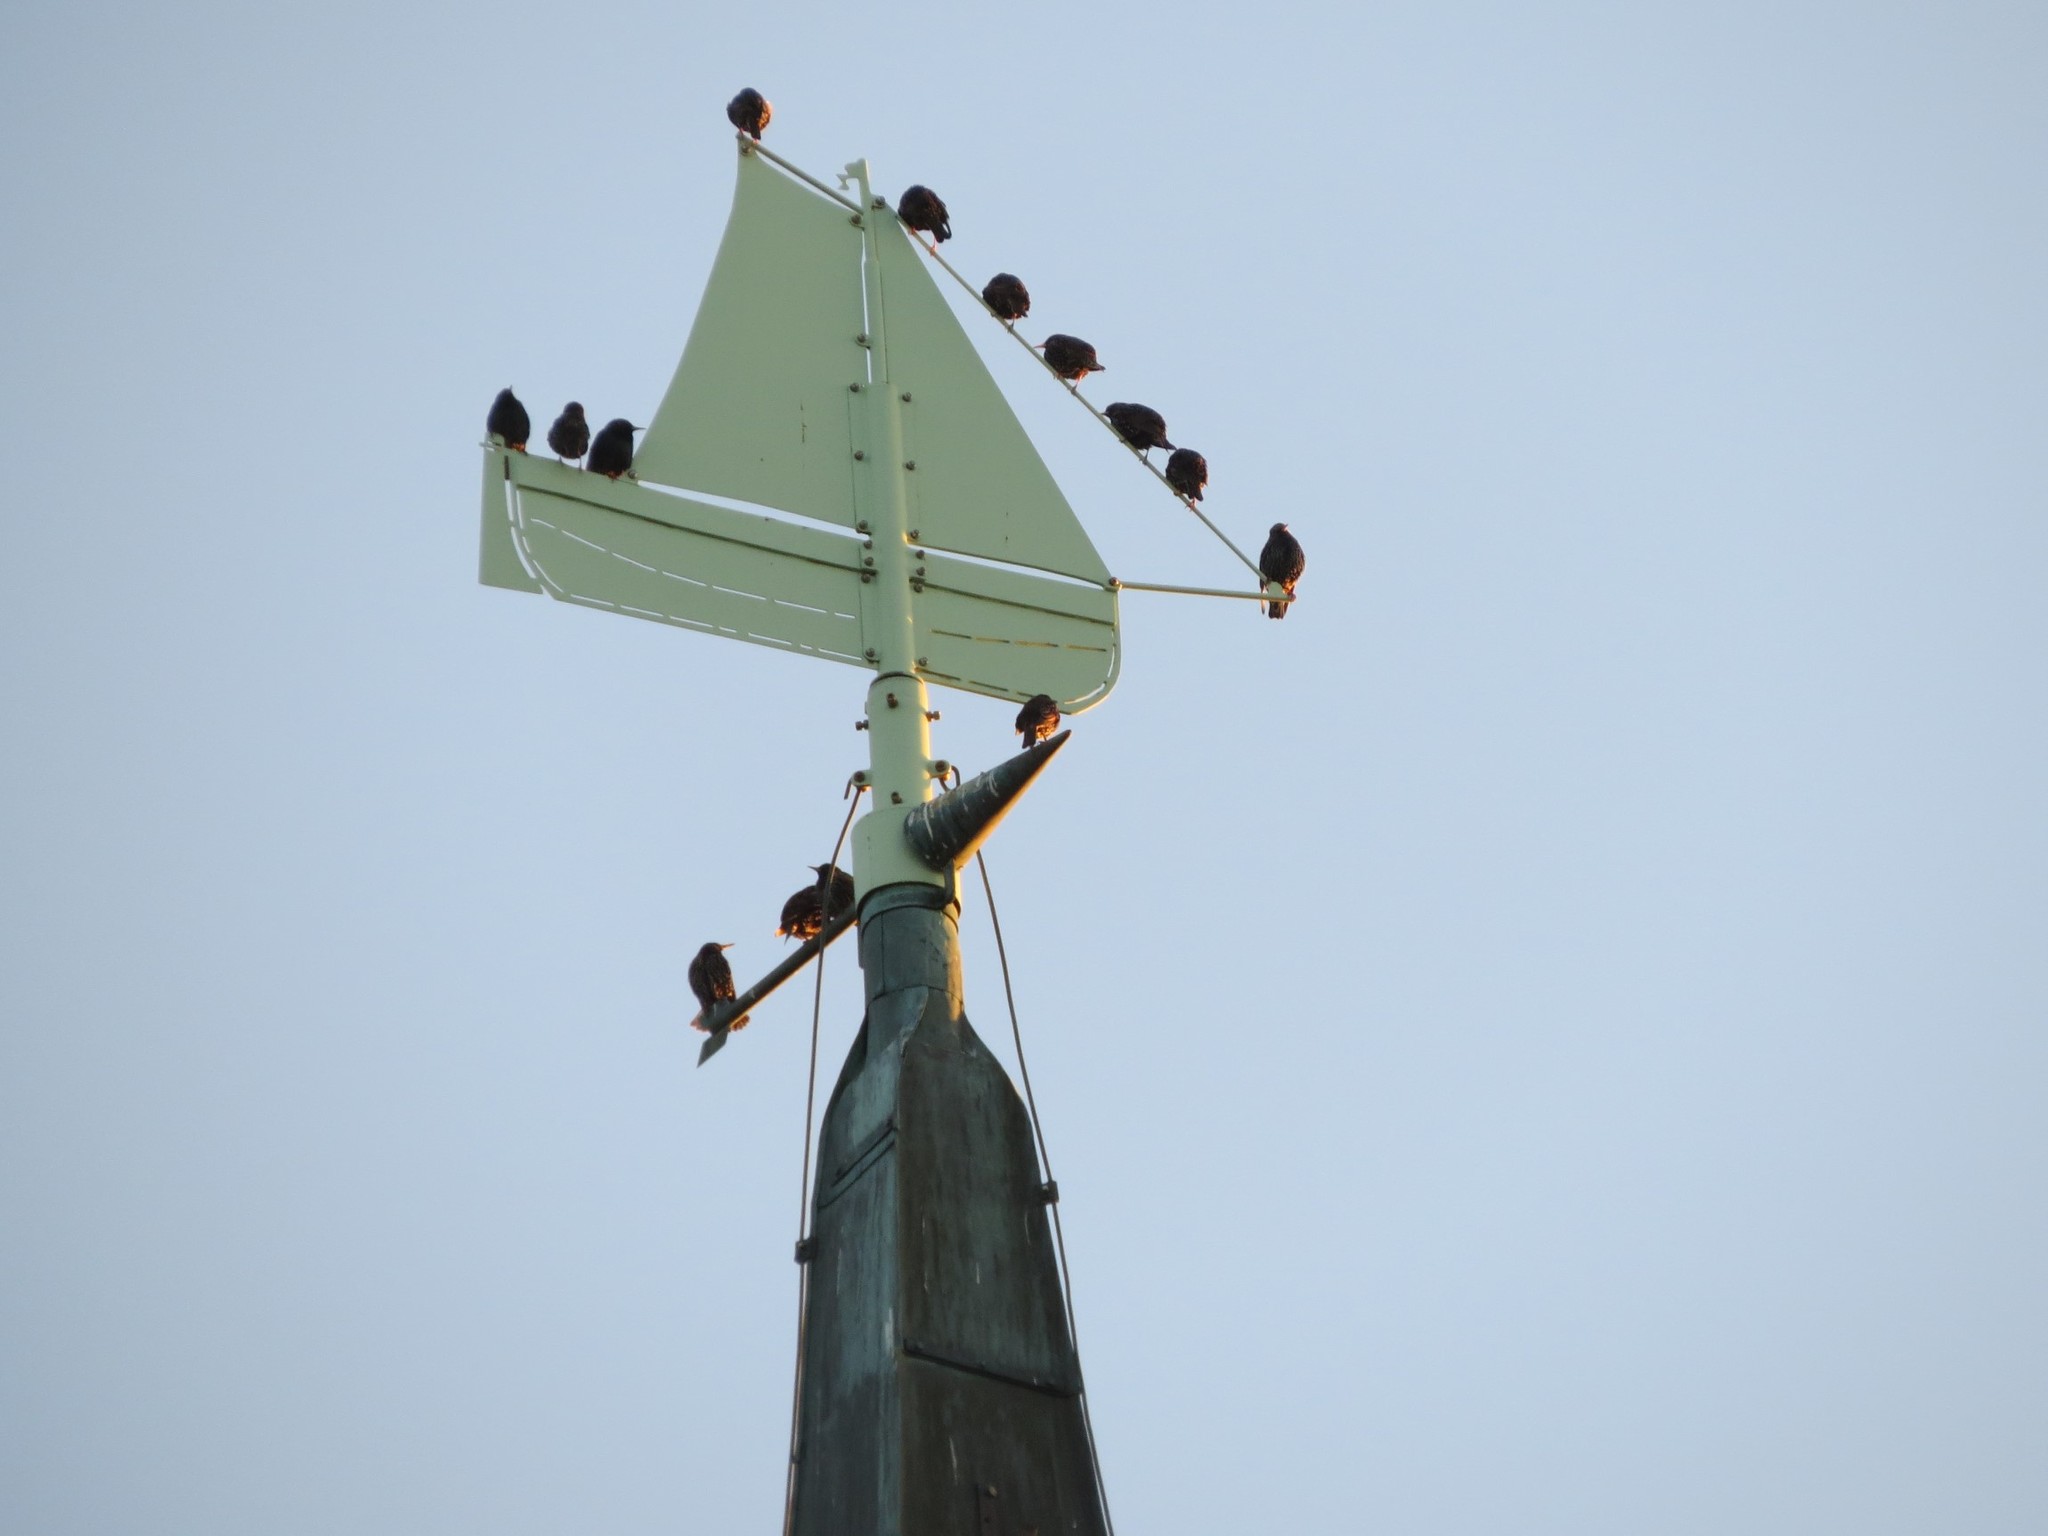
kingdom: Animalia
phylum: Chordata
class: Aves
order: Passeriformes
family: Sturnidae
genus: Sturnus
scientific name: Sturnus vulgaris
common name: Common starling
